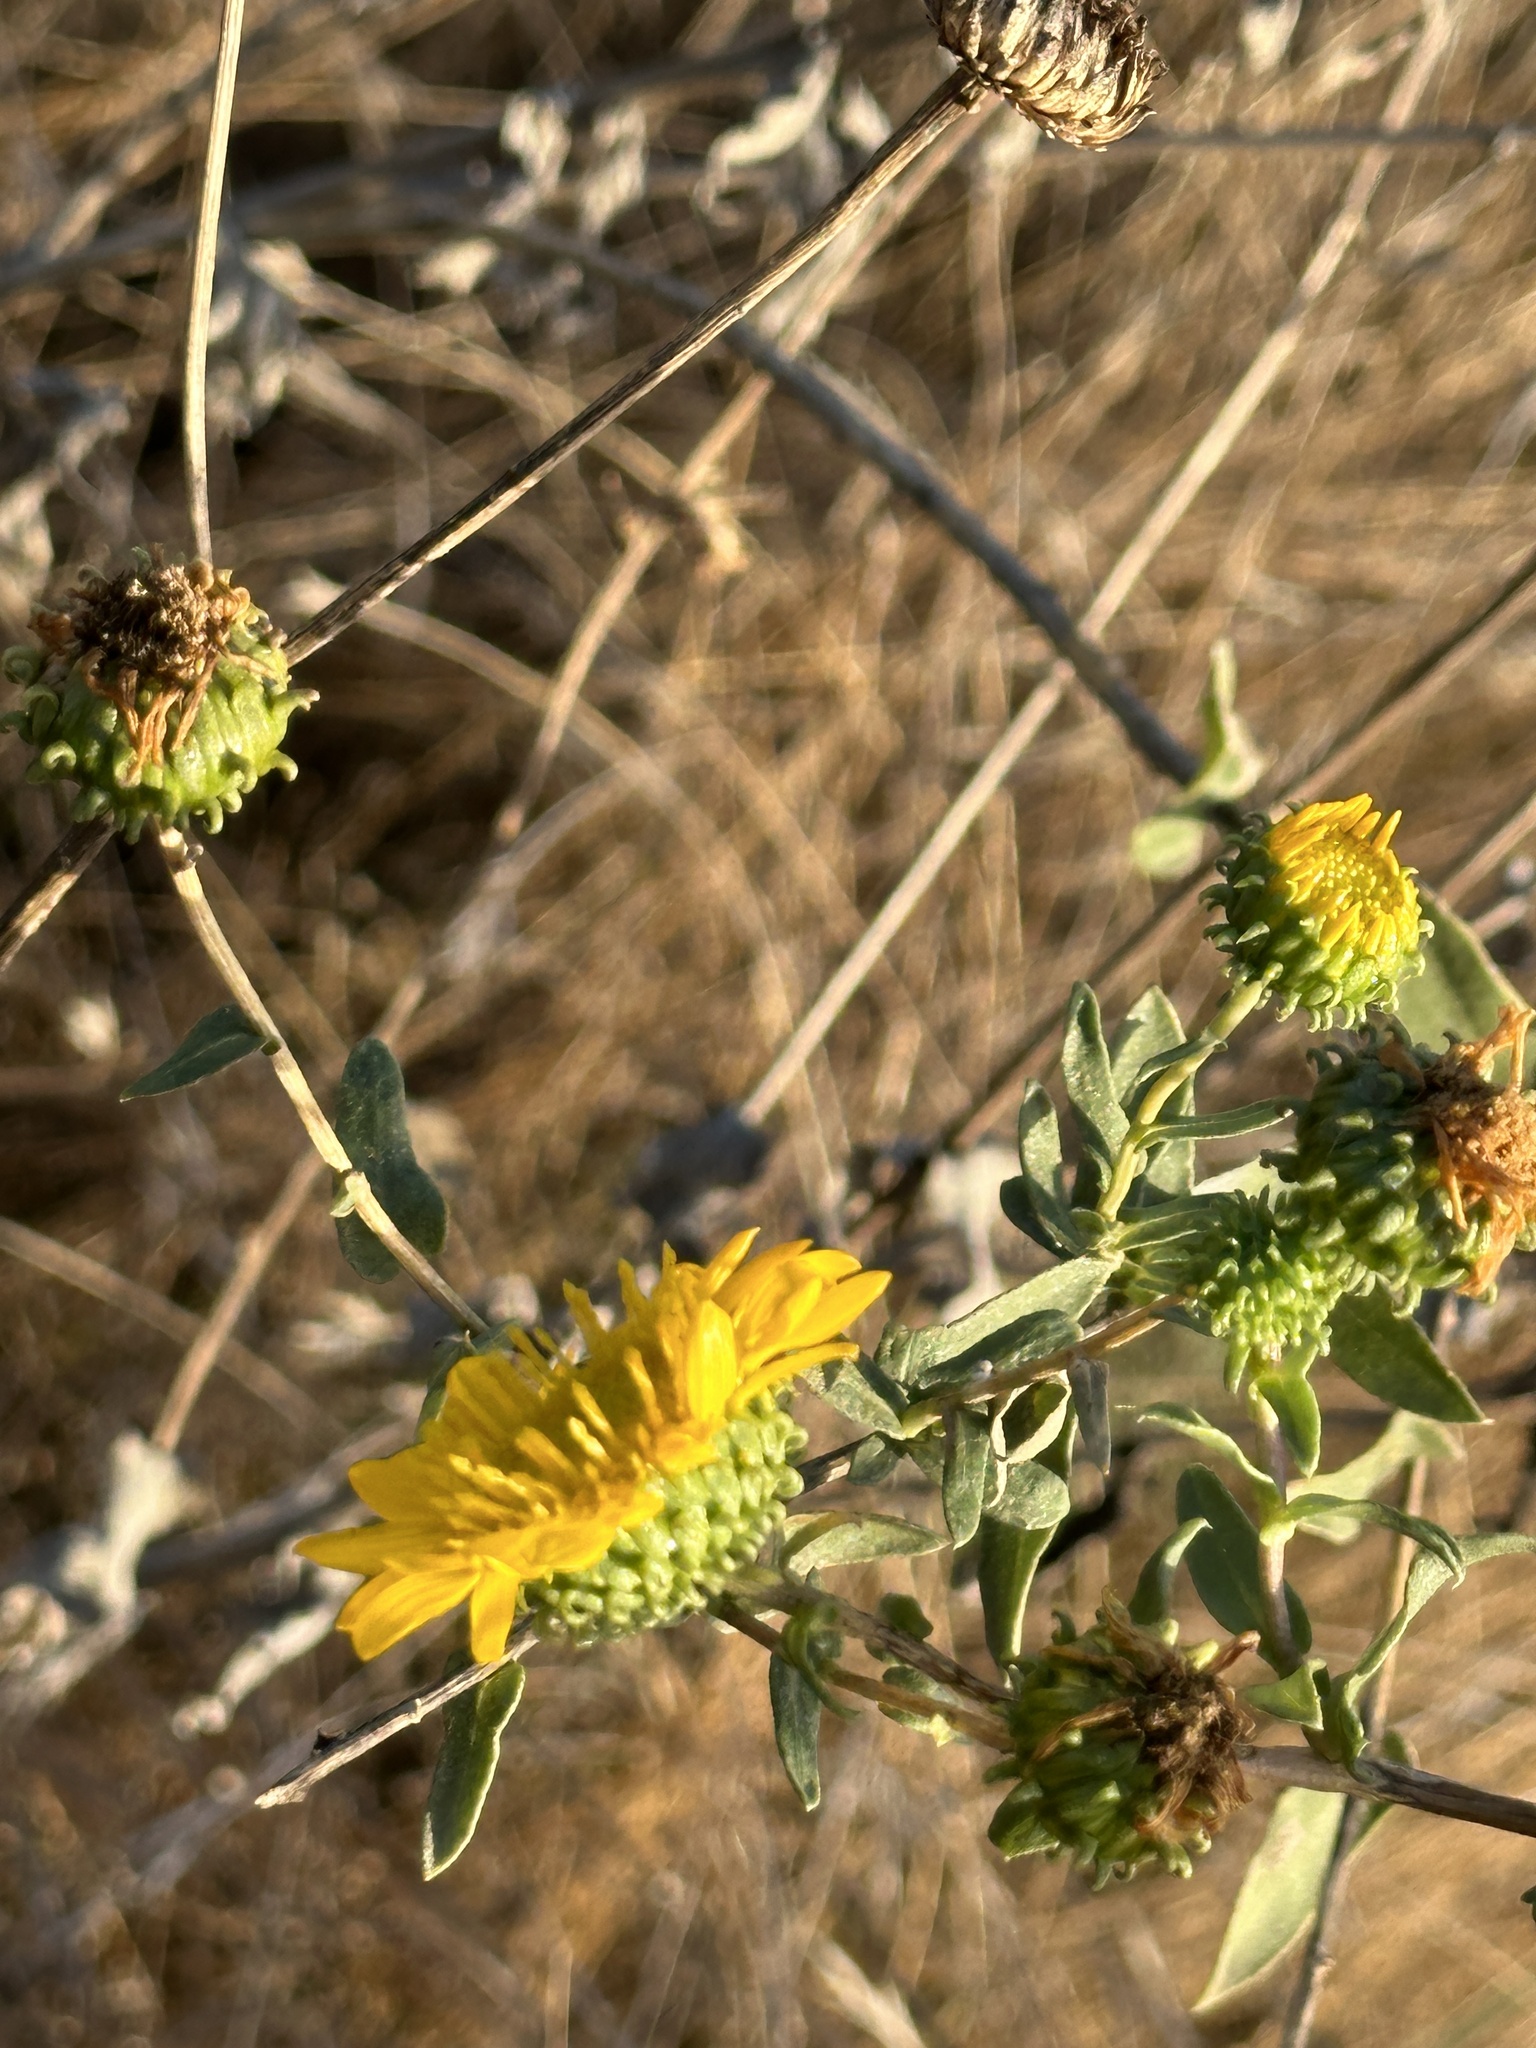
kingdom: Plantae
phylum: Tracheophyta
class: Magnoliopsida
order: Asterales
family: Asteraceae
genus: Grindelia
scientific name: Grindelia hirsutula
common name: Hairy gumweed
